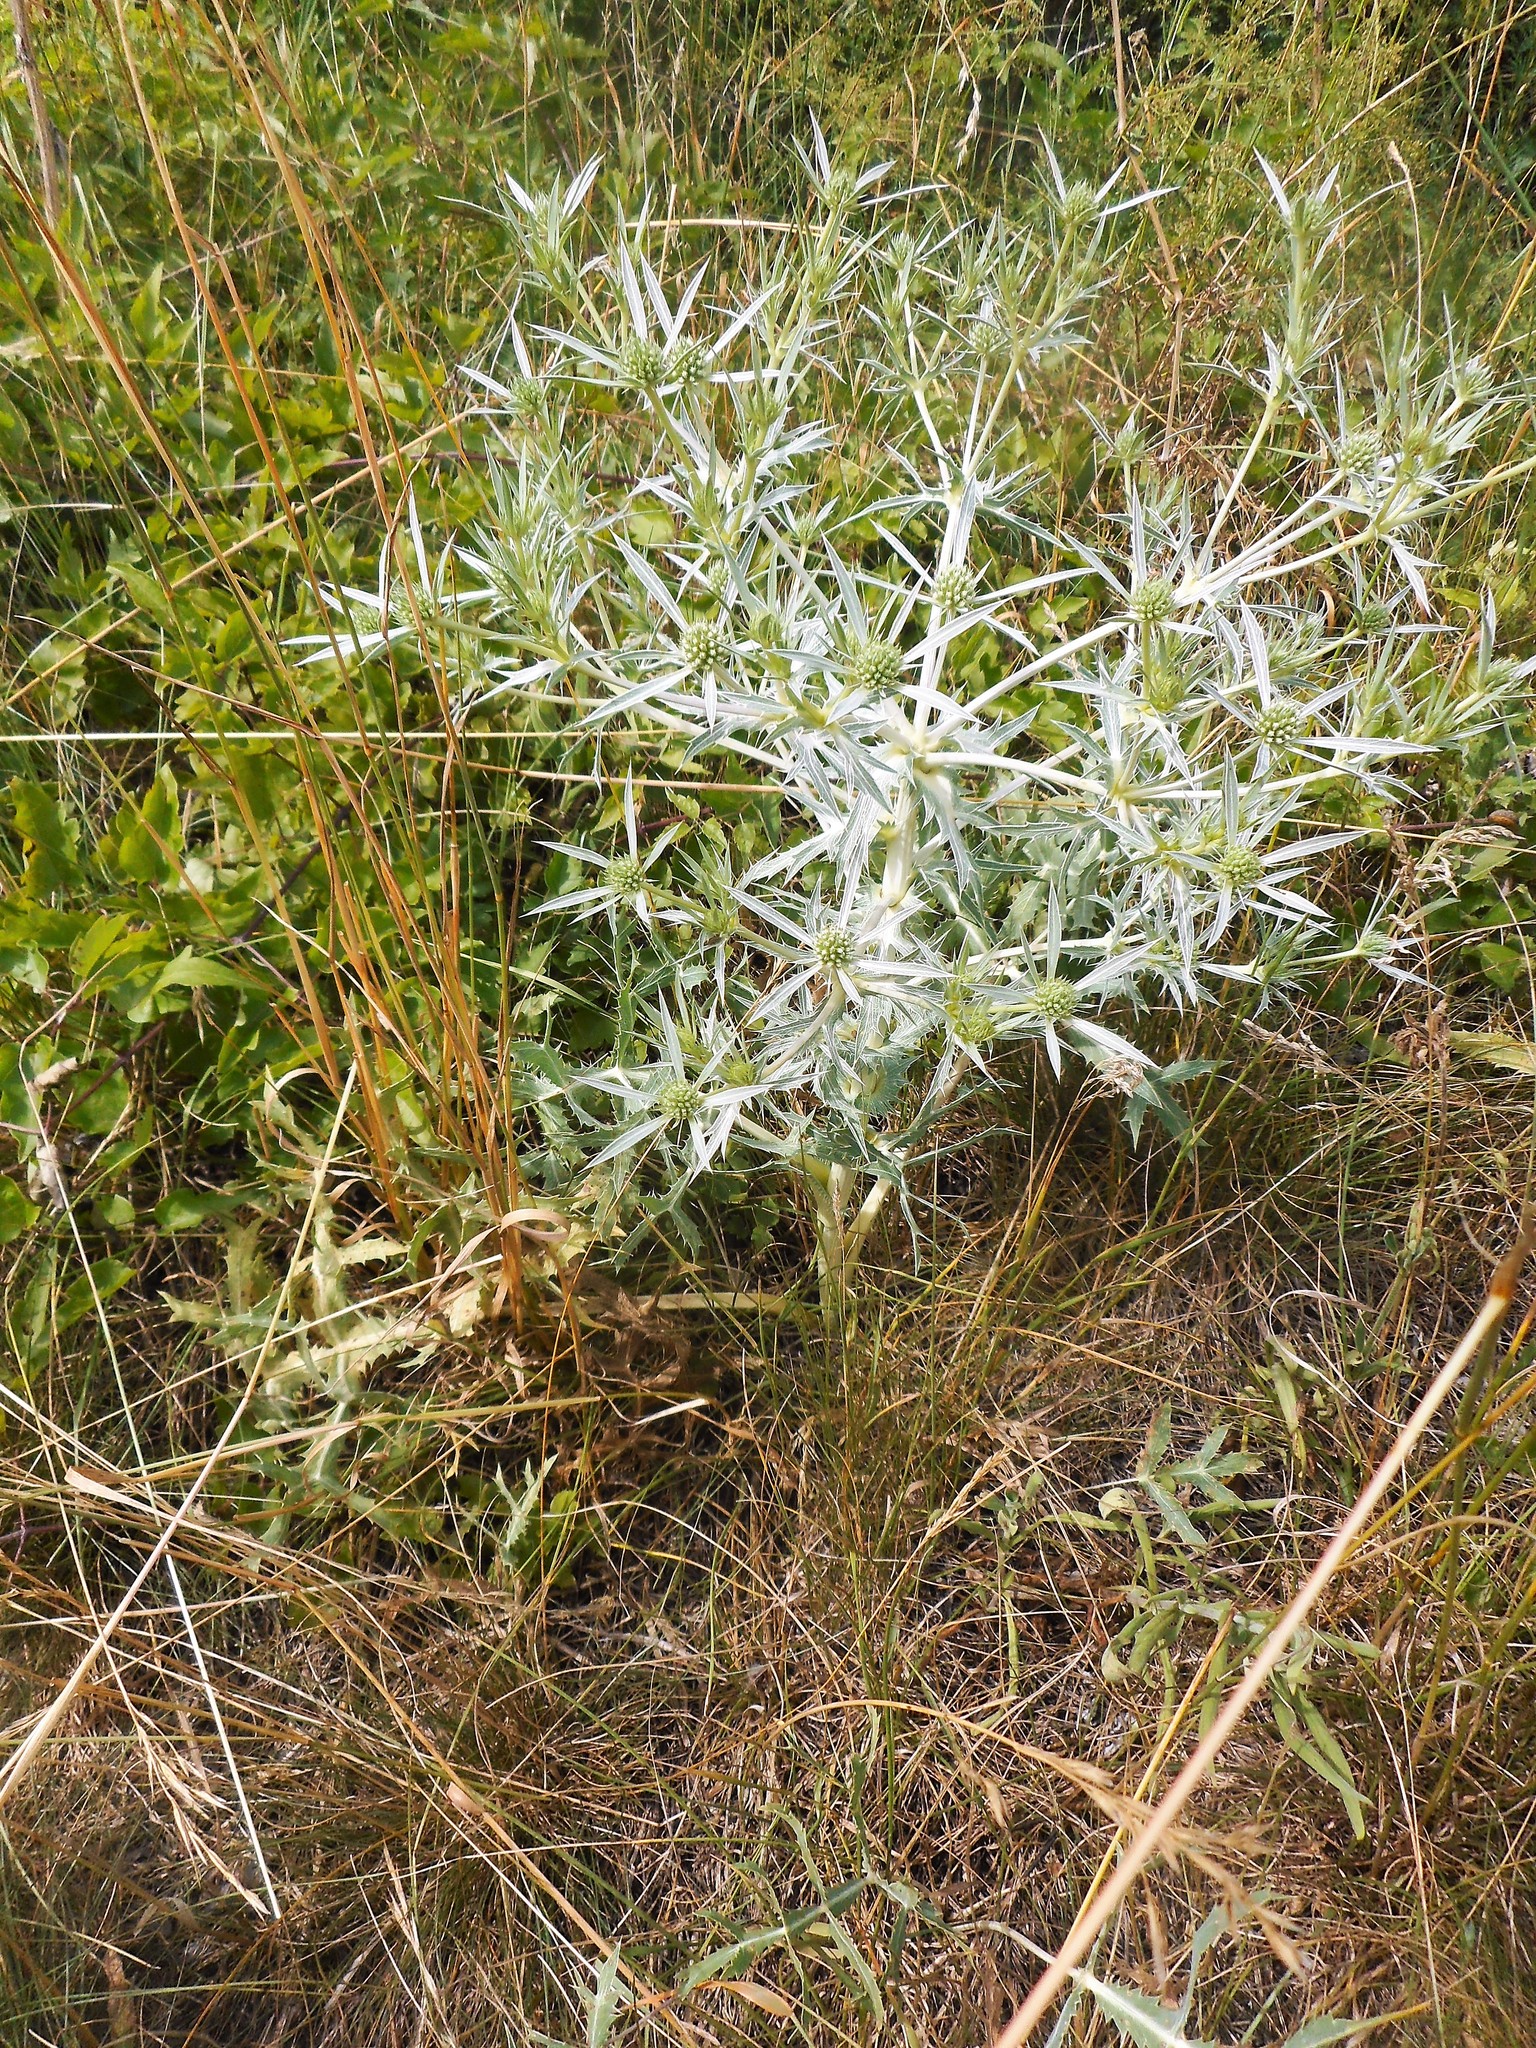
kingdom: Plantae
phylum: Tracheophyta
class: Magnoliopsida
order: Apiales
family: Apiaceae
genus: Eryngium
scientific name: Eryngium campestre
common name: Field eryngo
